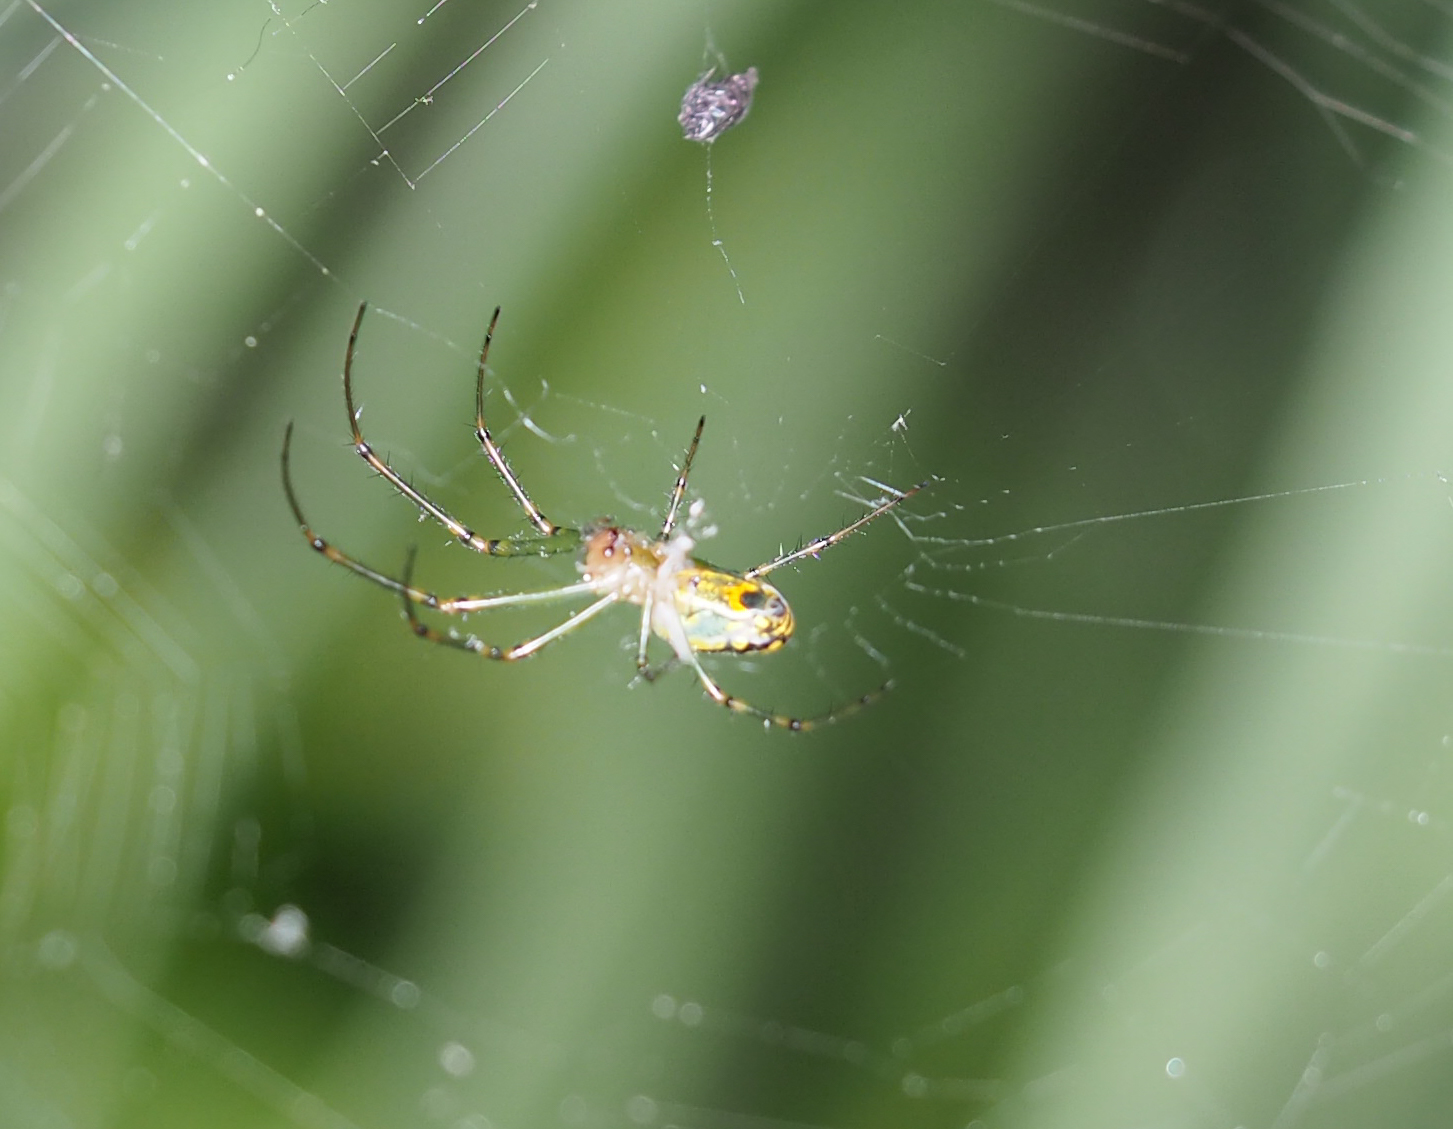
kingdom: Animalia
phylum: Arthropoda
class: Arachnida
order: Araneae
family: Tetragnathidae
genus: Leucauge
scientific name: Leucauge venusta
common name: Longjawed orb weavers
